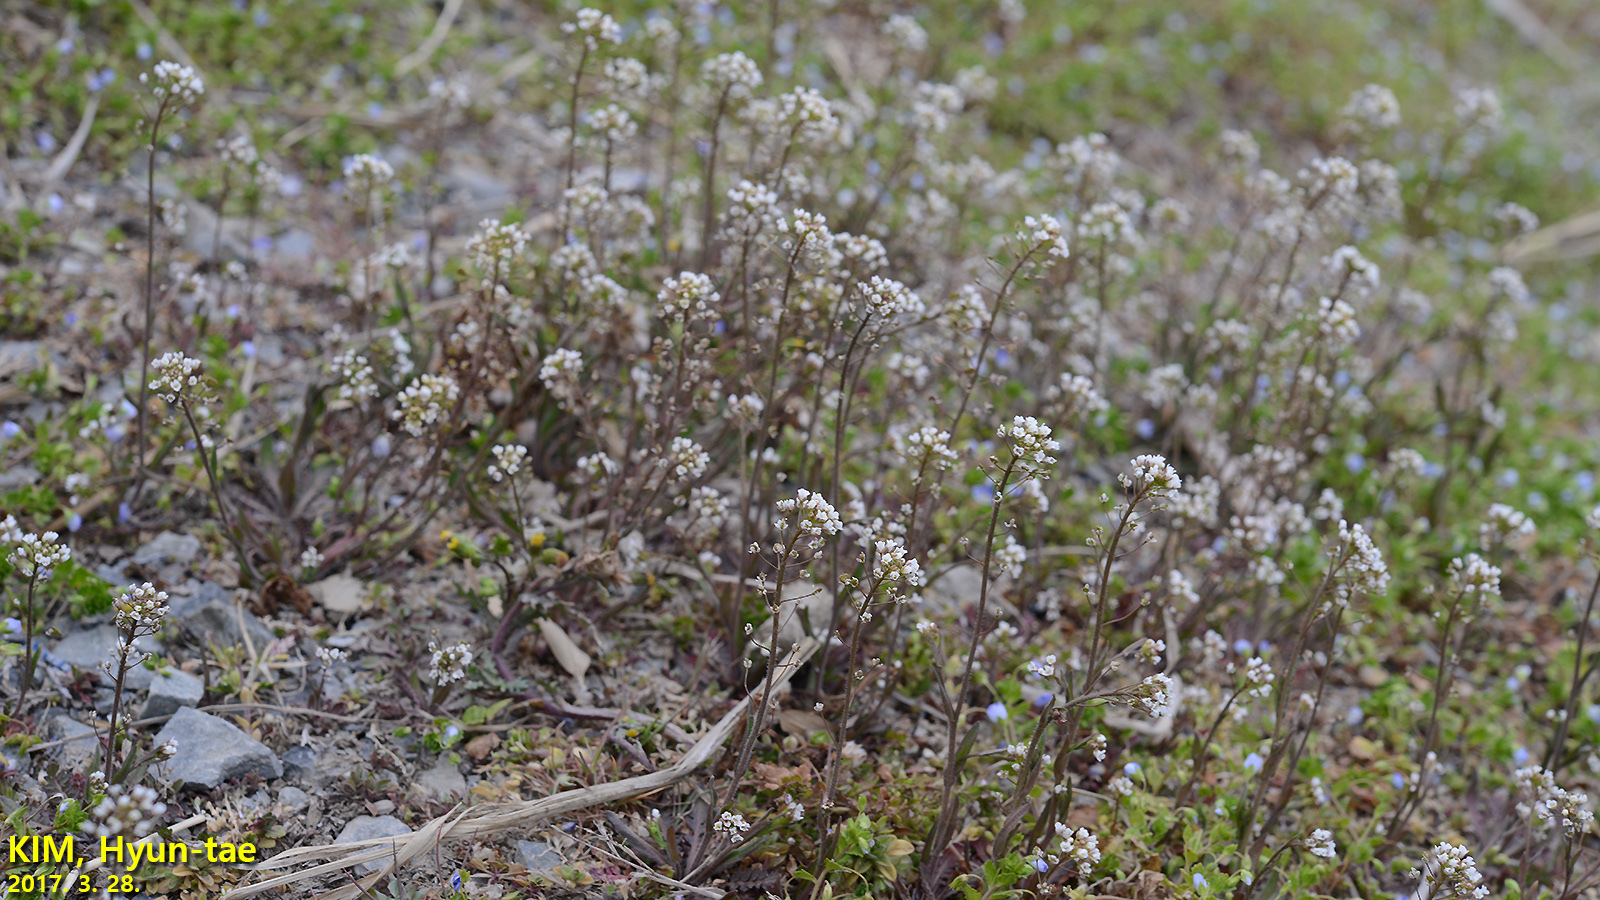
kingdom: Plantae
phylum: Tracheophyta
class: Magnoliopsida
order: Brassicales
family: Brassicaceae
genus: Capsella
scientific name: Capsella bursa-pastoris
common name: Shepherd's purse
